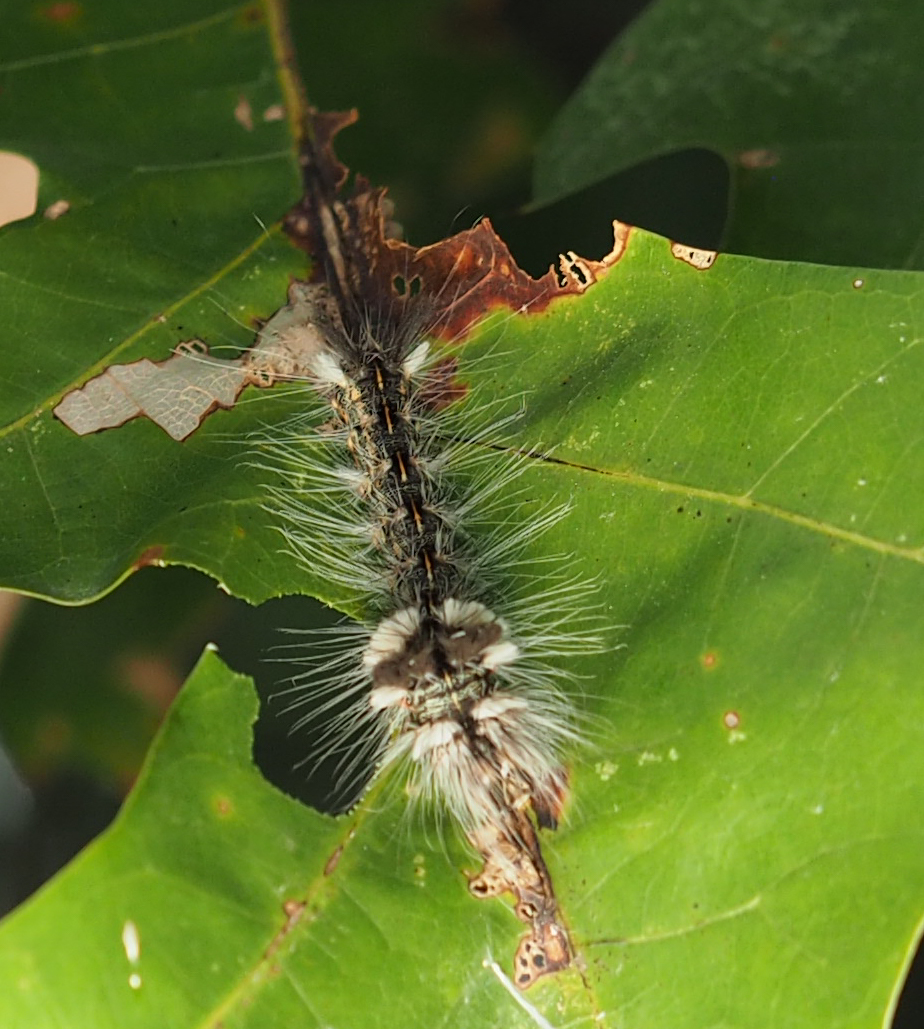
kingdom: Animalia
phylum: Arthropoda
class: Insecta
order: Lepidoptera
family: Noctuidae
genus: Acronicta
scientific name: Acronicta impleta
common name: Powdered dagger
